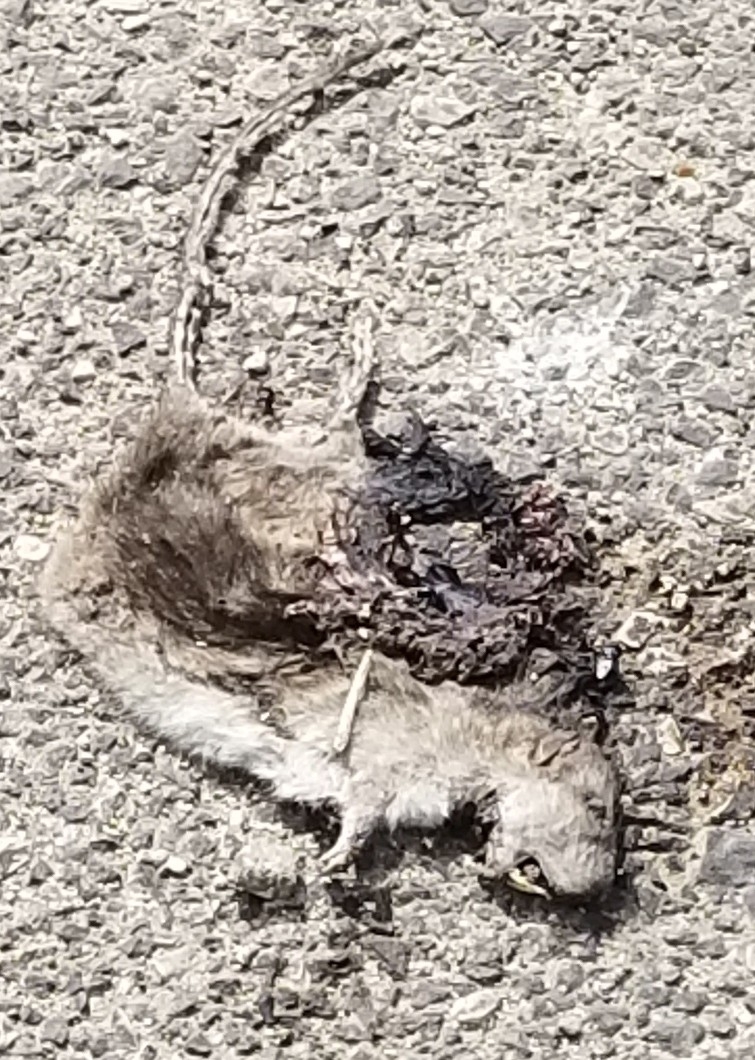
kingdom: Animalia
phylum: Chordata
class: Mammalia
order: Rodentia
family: Muridae
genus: Rattus
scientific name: Rattus norvegicus
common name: Brown rat
